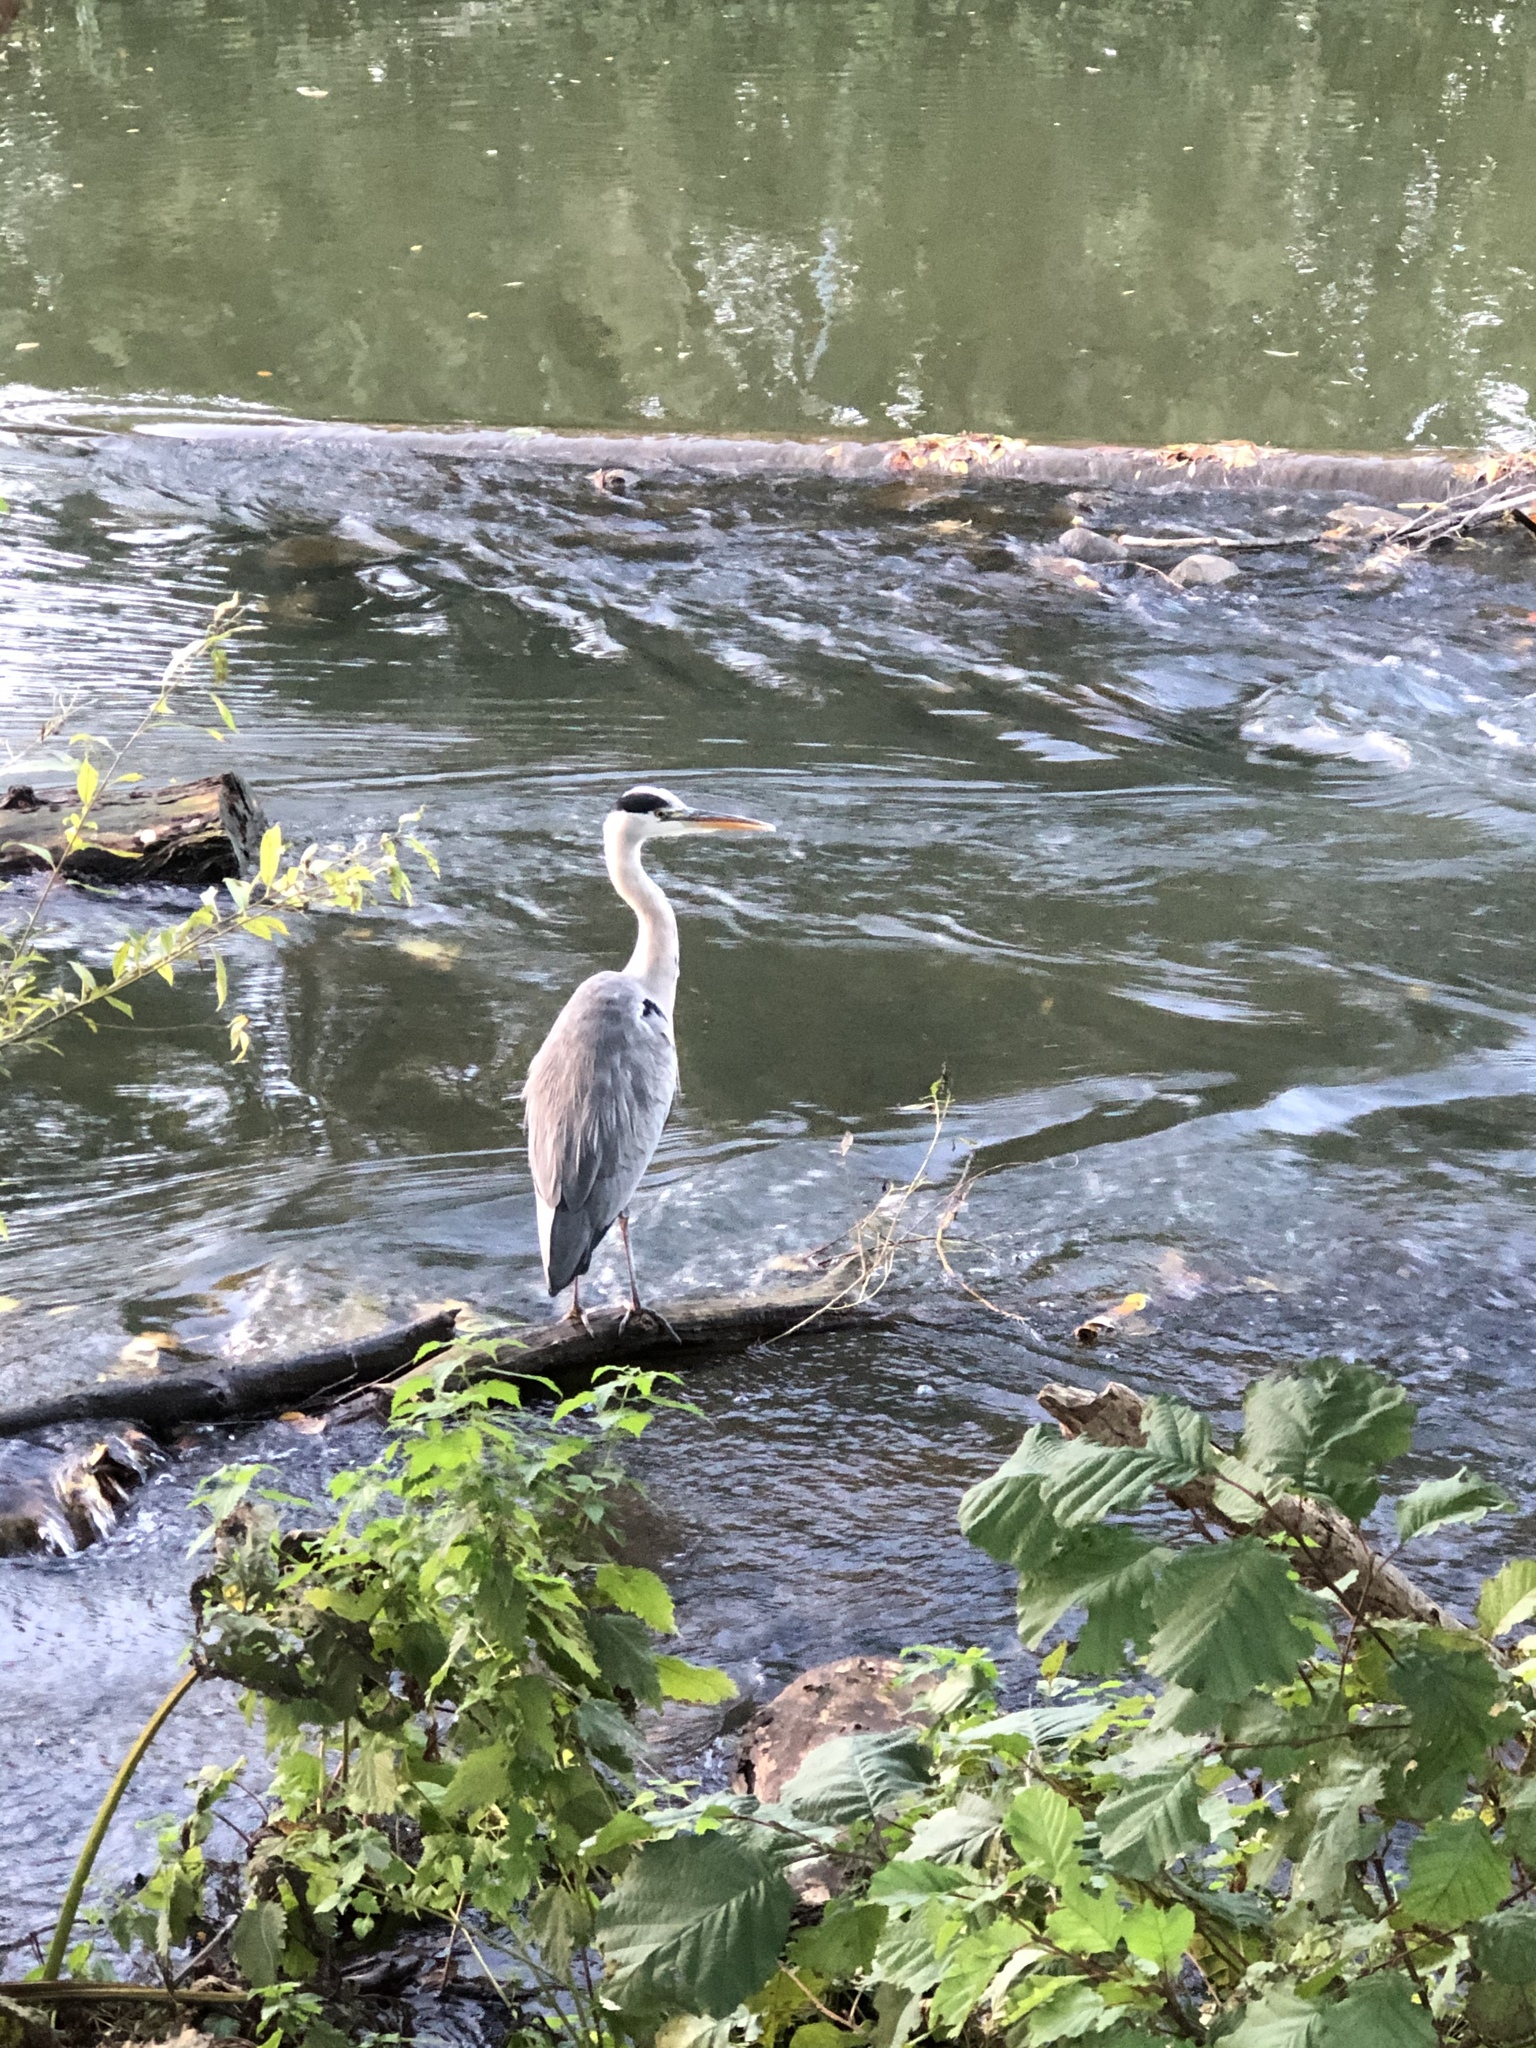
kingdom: Animalia
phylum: Chordata
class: Aves
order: Pelecaniformes
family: Ardeidae
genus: Ardea
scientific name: Ardea cinerea
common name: Grey heron
